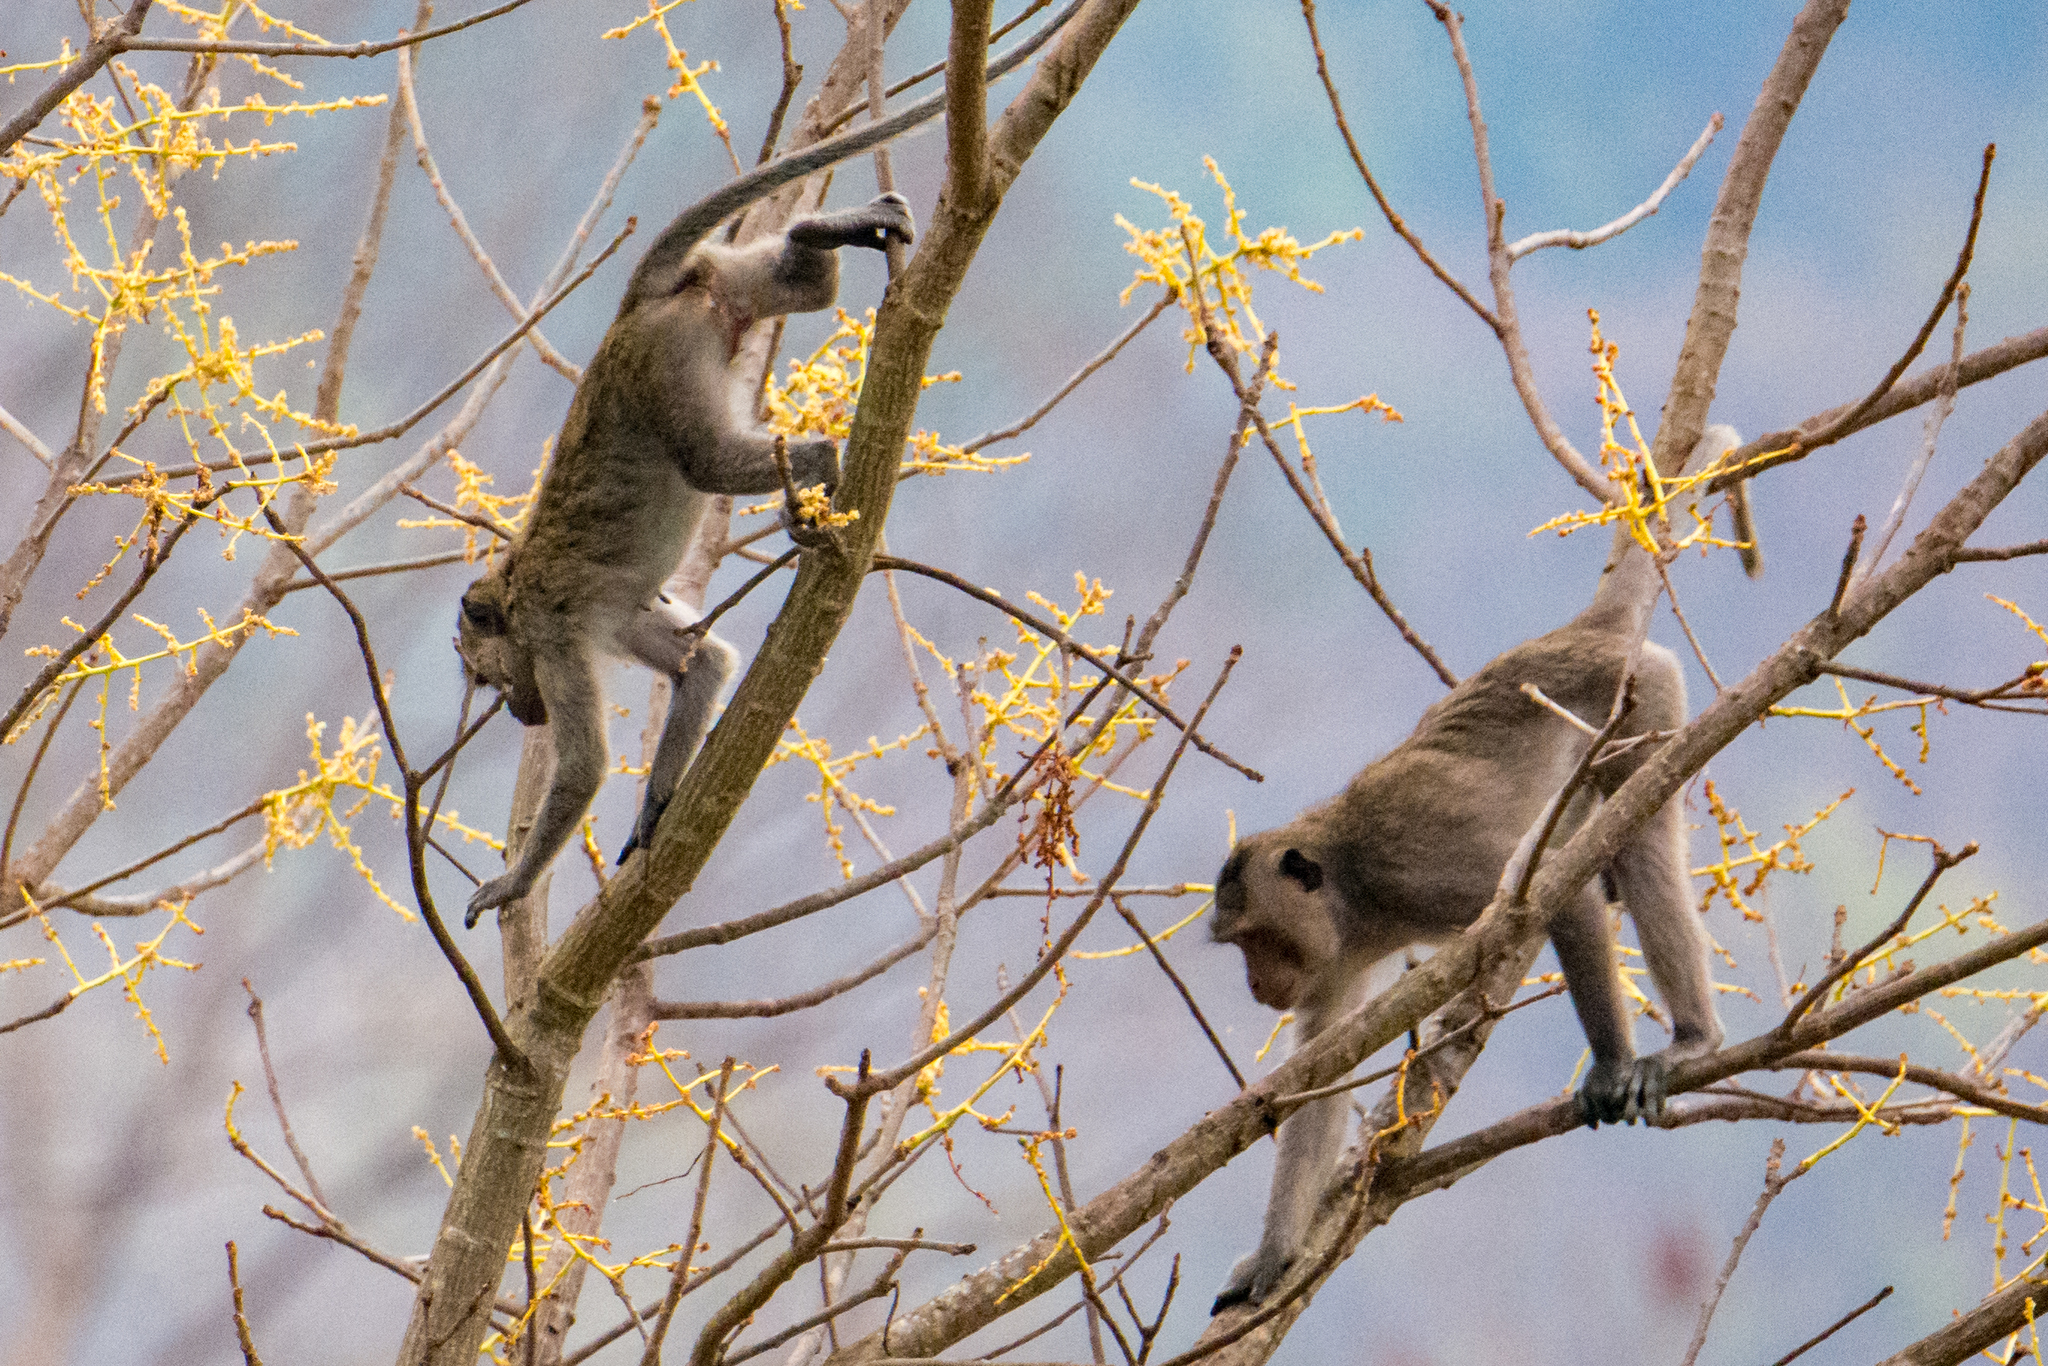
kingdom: Animalia
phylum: Chordata
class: Mammalia
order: Primates
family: Cercopithecidae
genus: Macaca
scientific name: Macaca fascicularis
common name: Crab-eating macaque
